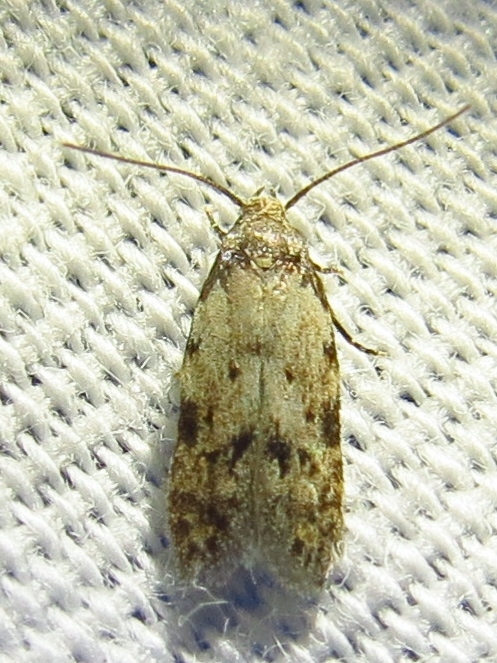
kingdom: Animalia
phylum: Arthropoda
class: Insecta
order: Lepidoptera
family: Autostichidae
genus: Taygete
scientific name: Taygete attributella
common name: Triangle-marked twirler moth
